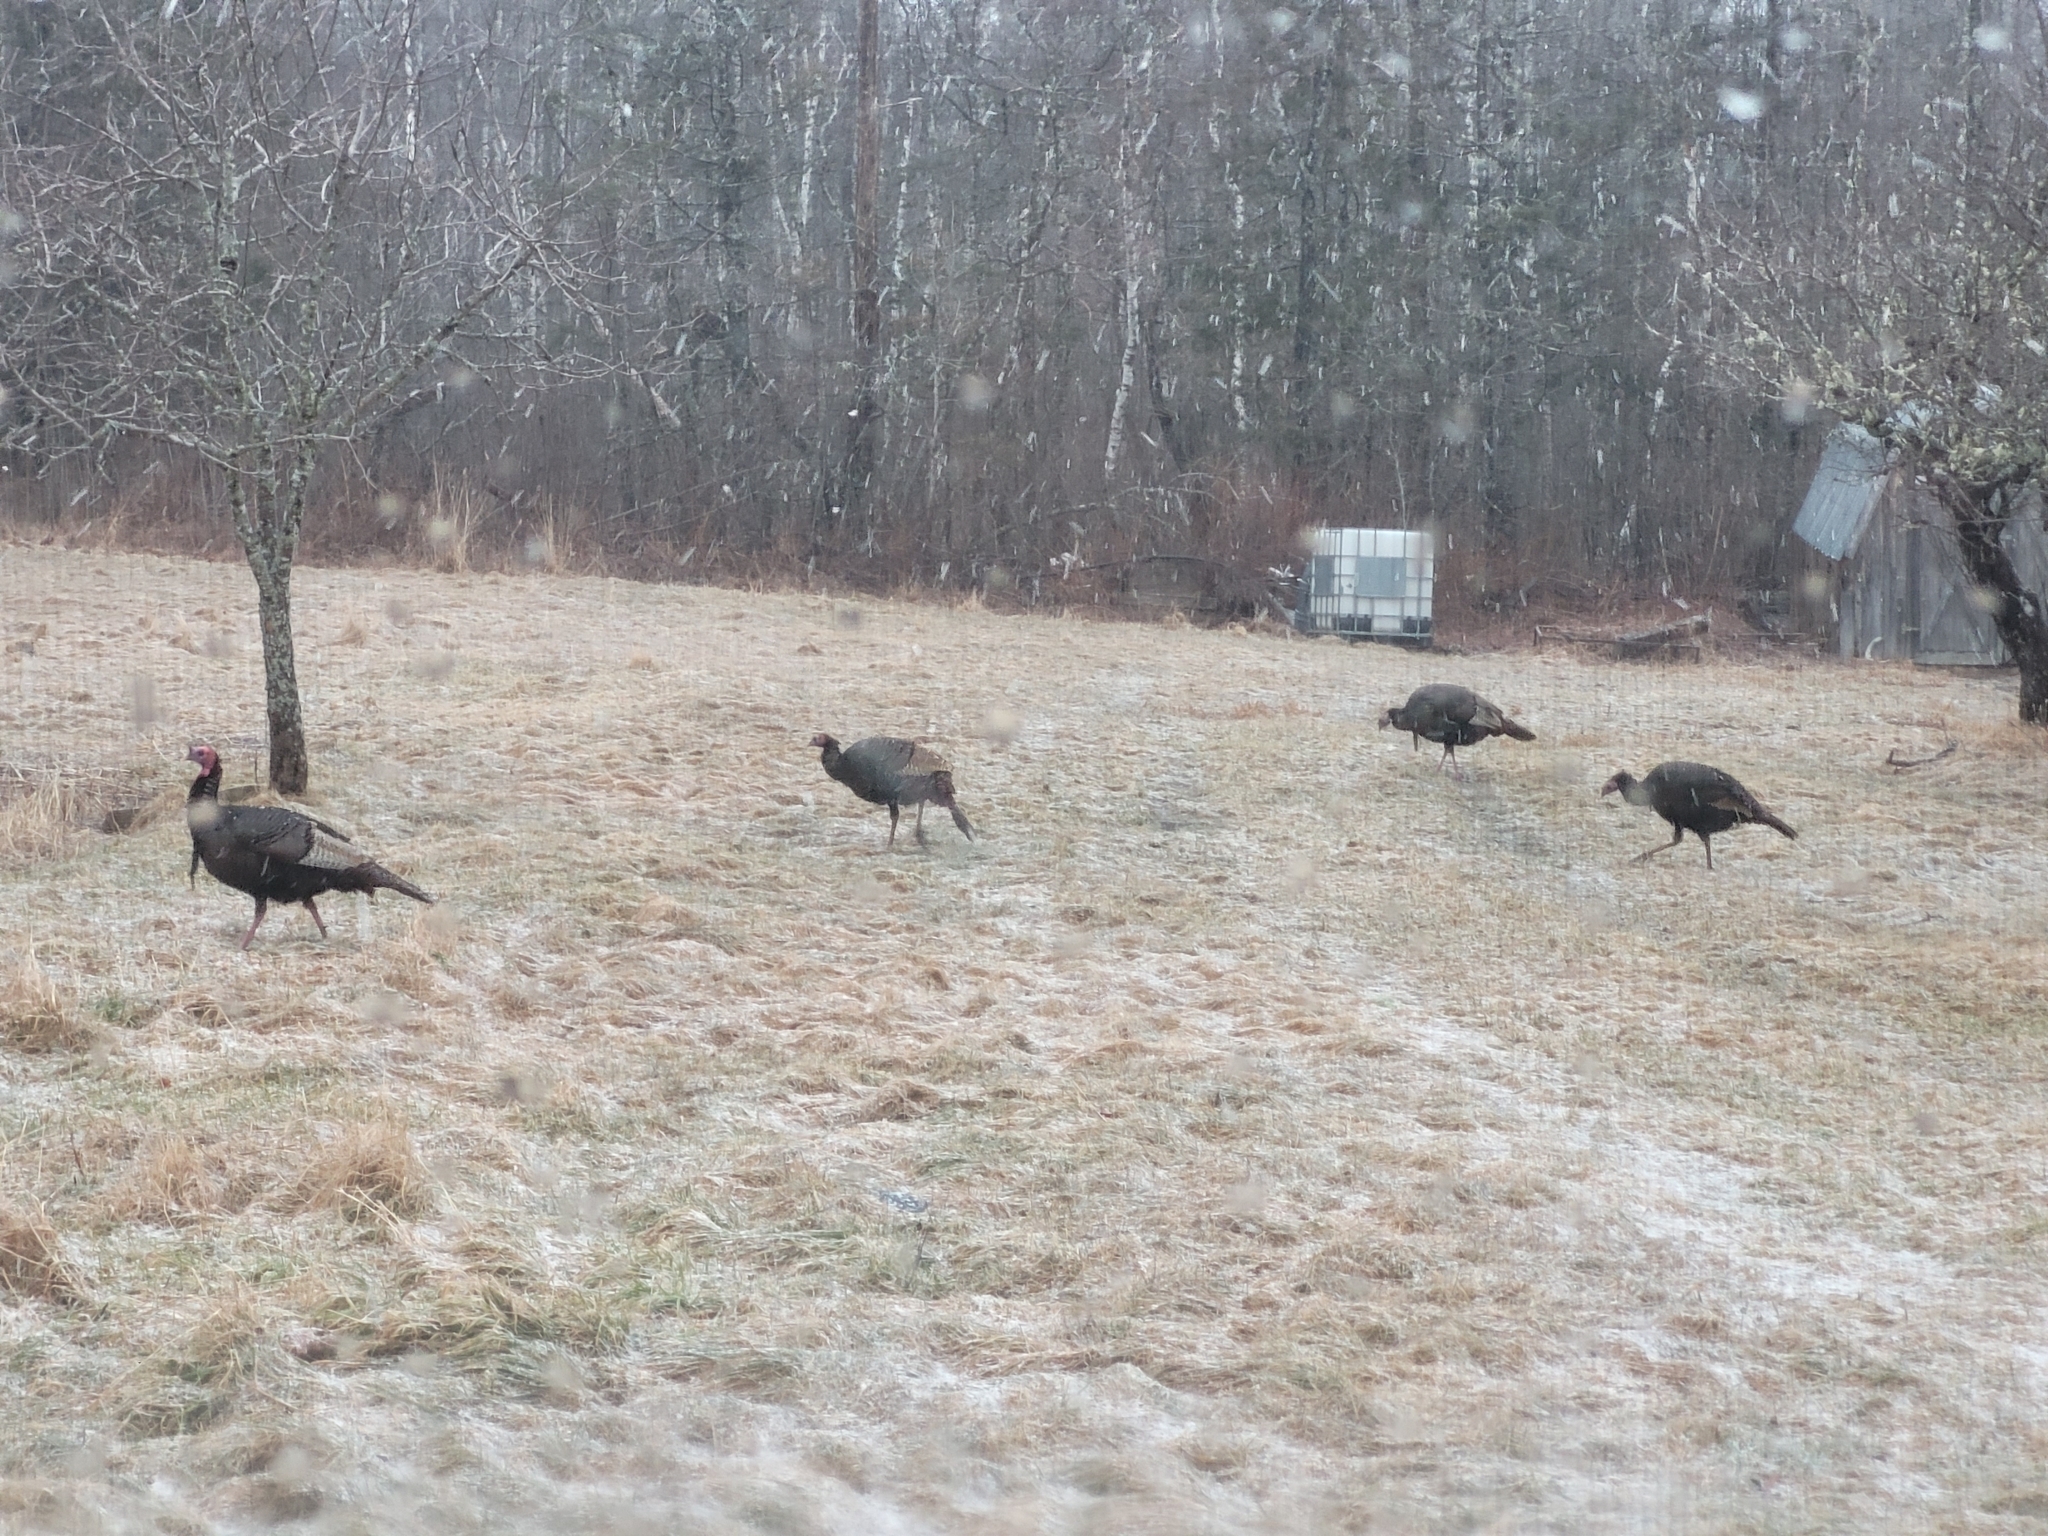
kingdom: Animalia
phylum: Chordata
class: Aves
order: Galliformes
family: Phasianidae
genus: Meleagris
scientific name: Meleagris gallopavo
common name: Wild turkey
